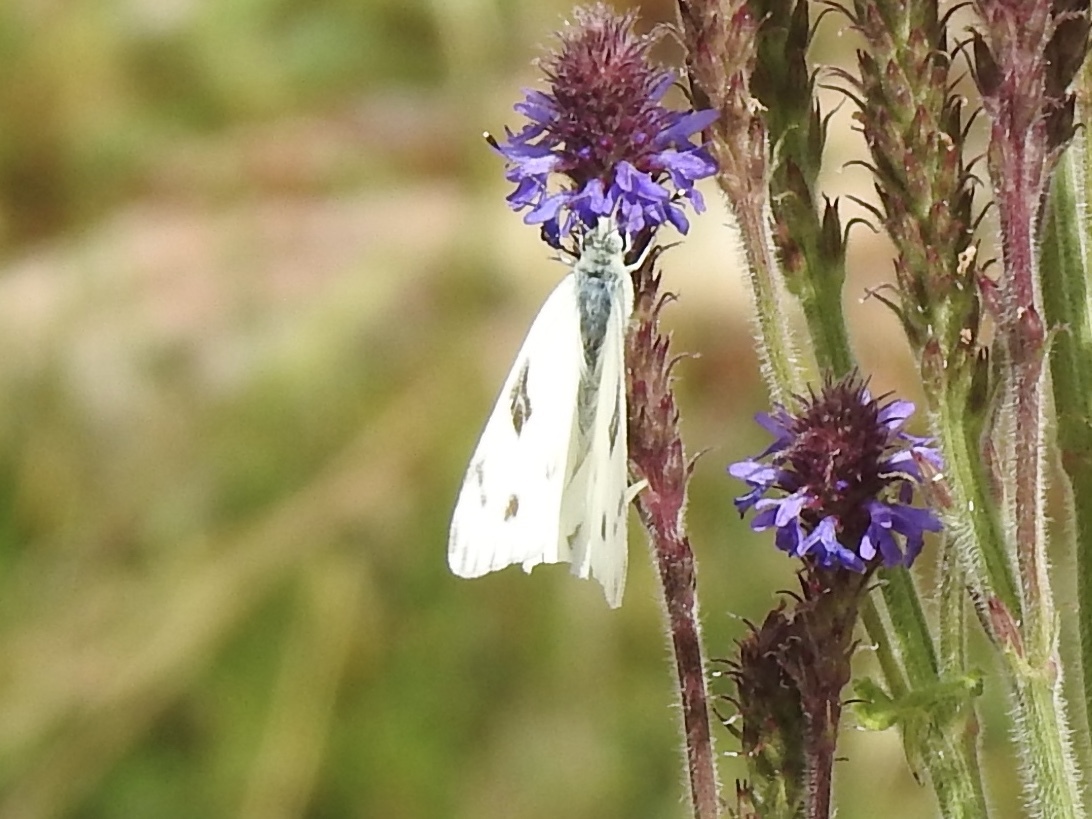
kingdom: Animalia
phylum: Arthropoda
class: Insecta
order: Lepidoptera
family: Pieridae
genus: Pontia
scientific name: Pontia protodice
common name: Checkered white
